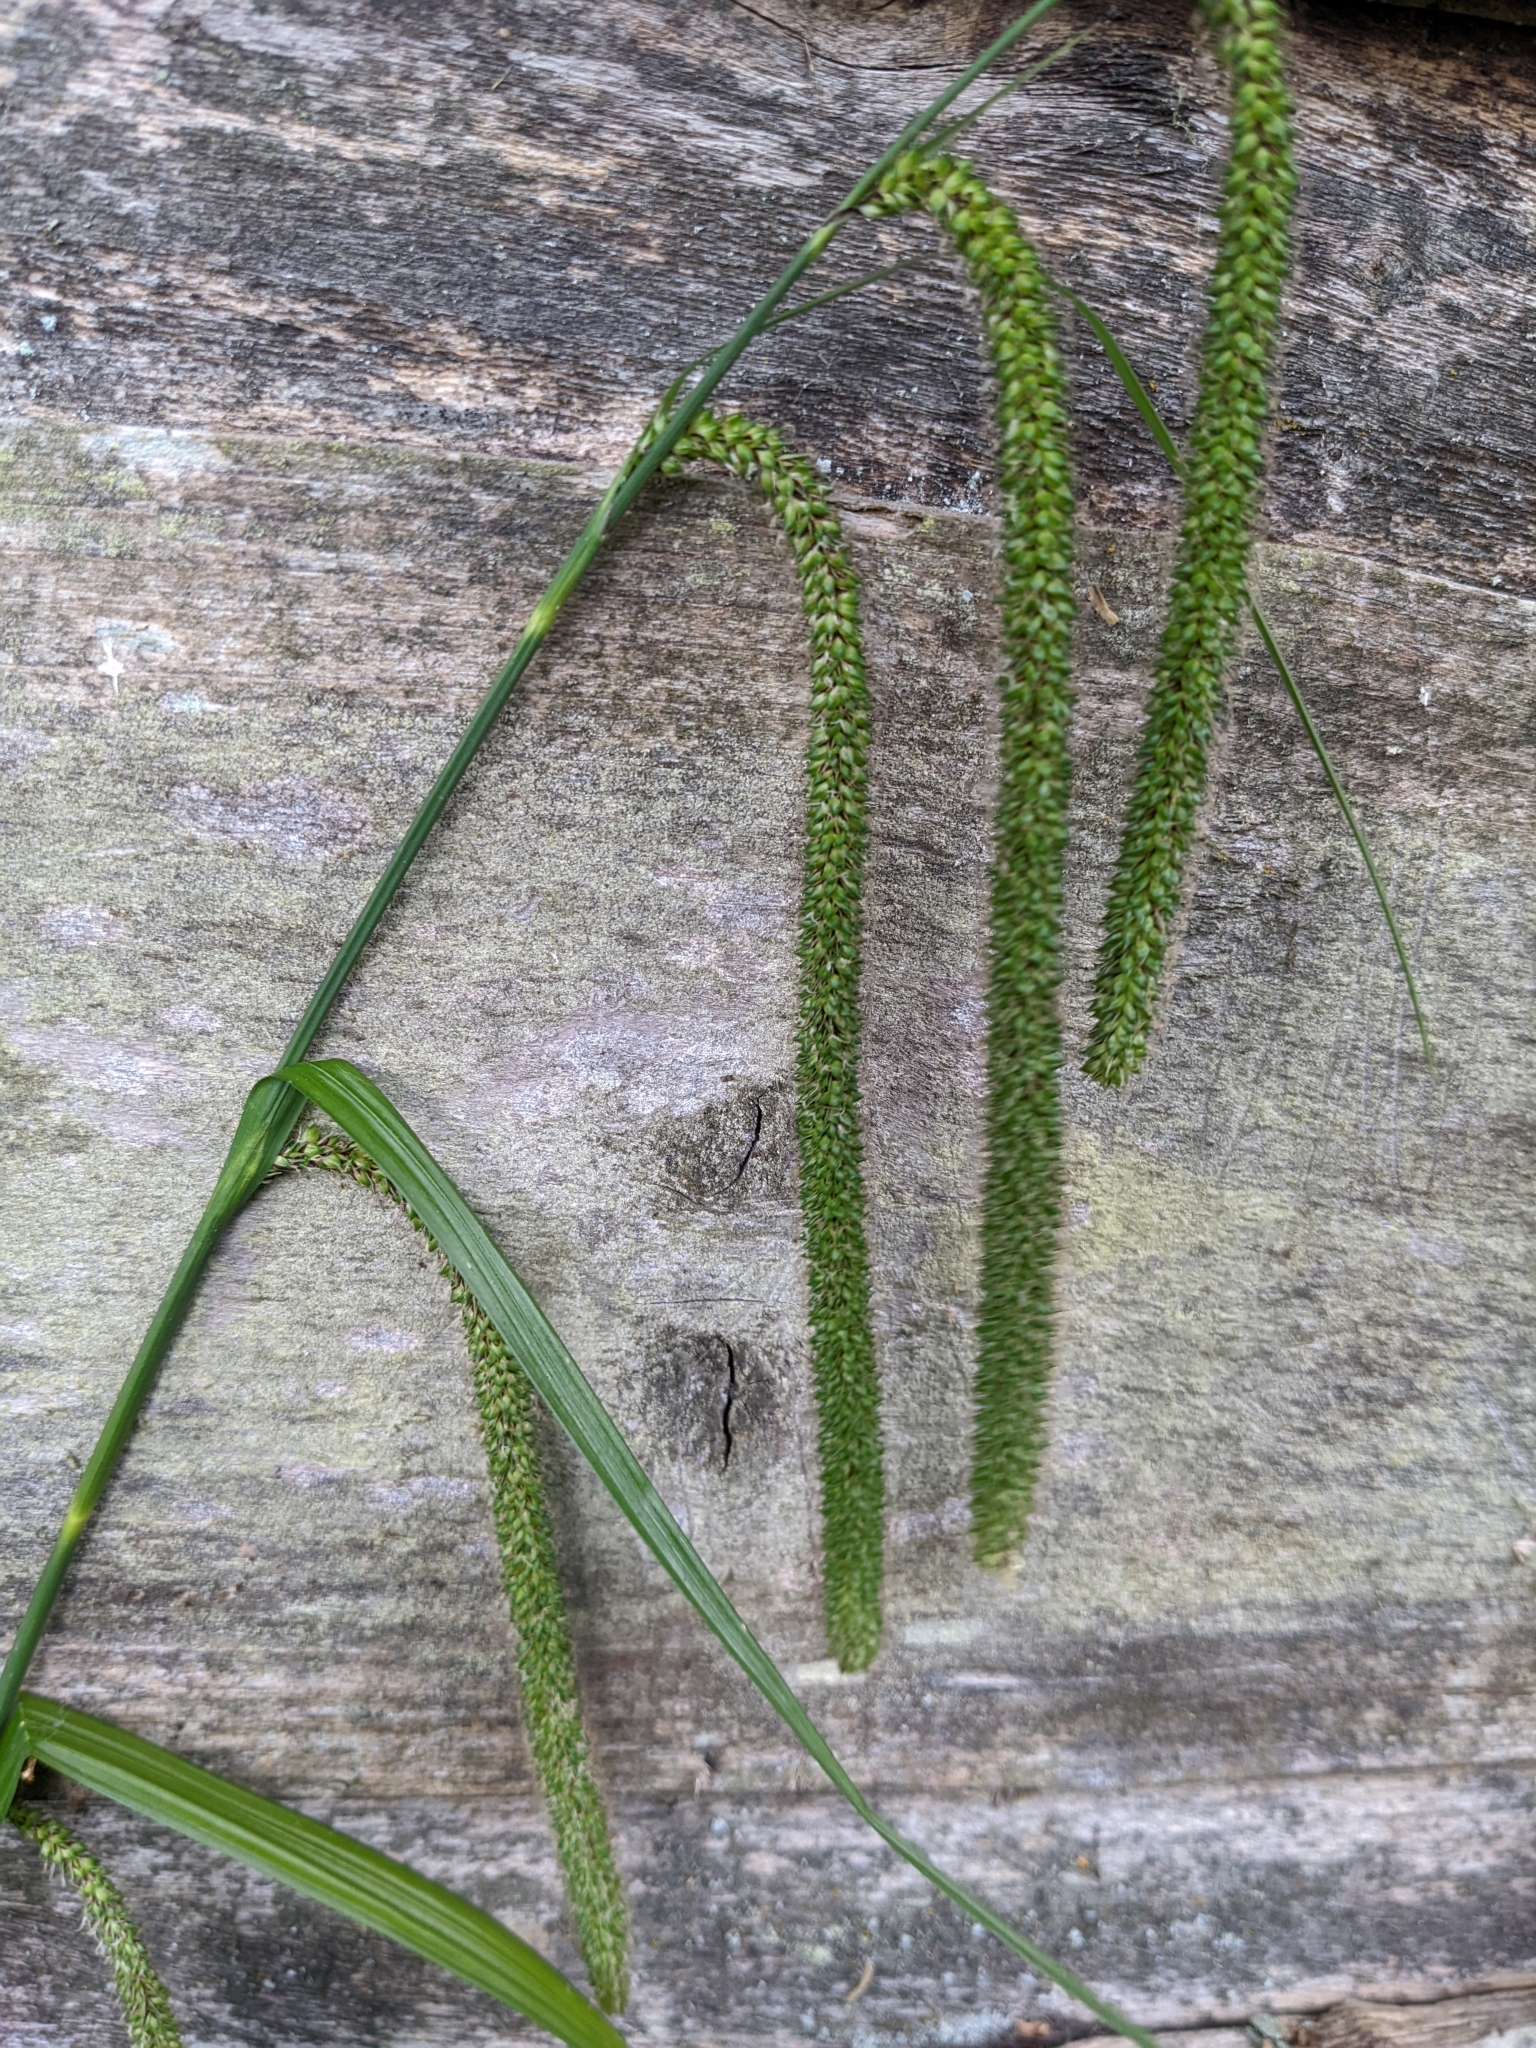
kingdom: Plantae
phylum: Tracheophyta
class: Liliopsida
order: Poales
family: Cyperaceae
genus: Carex
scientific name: Carex pendula
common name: Pendulous sedge
